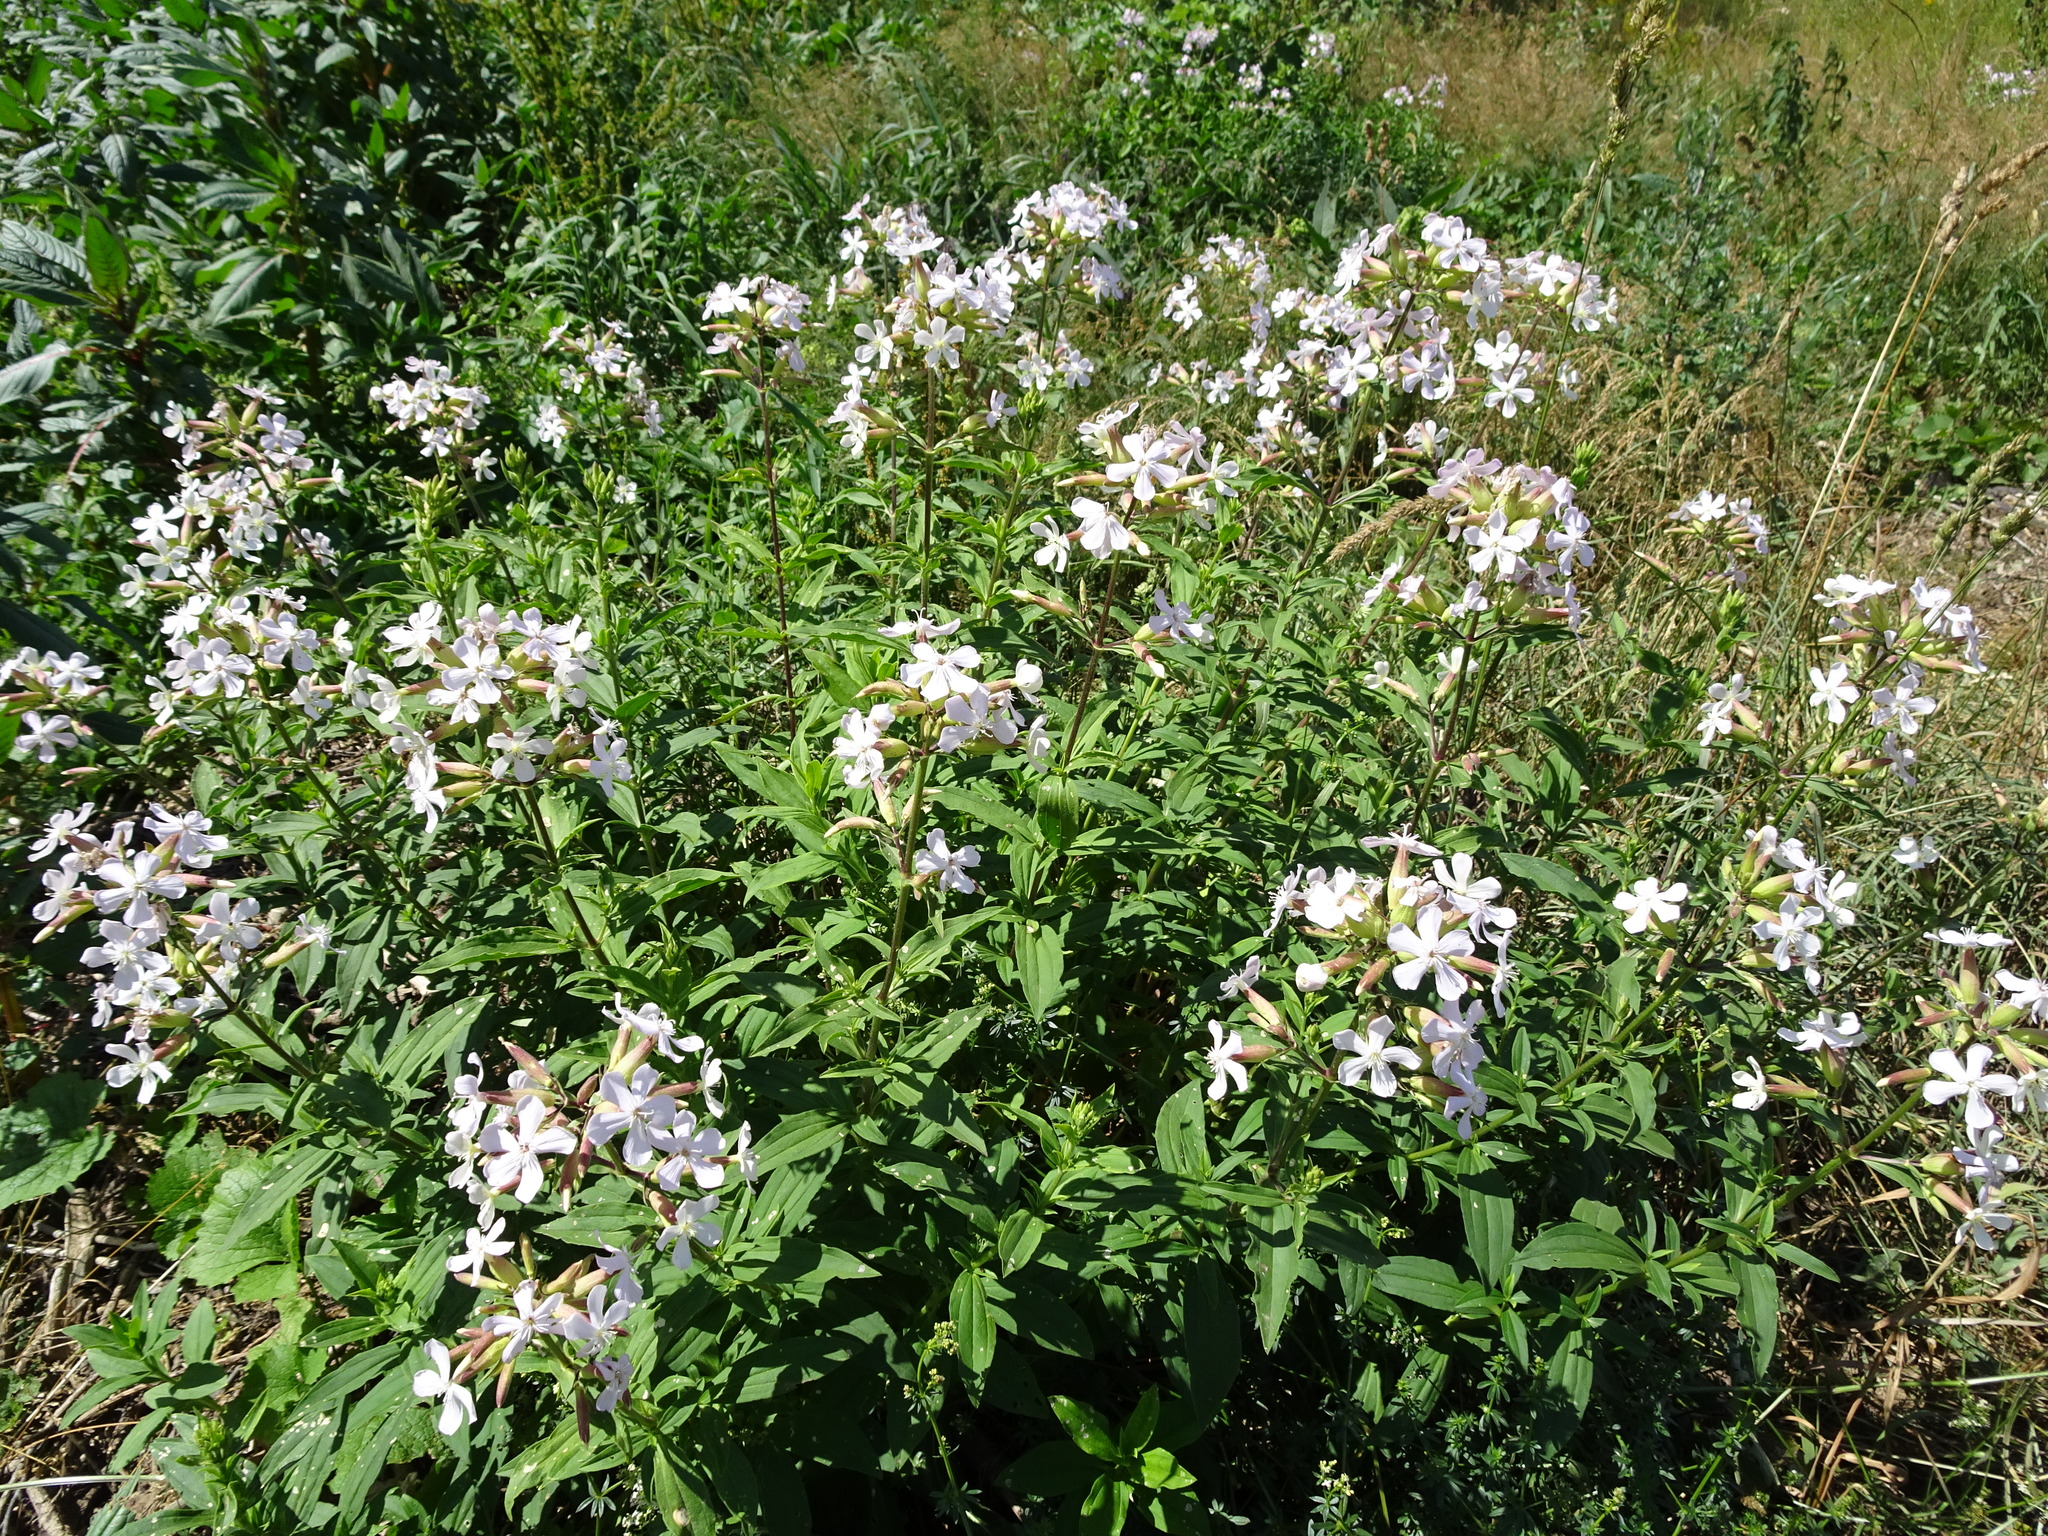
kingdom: Plantae
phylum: Tracheophyta
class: Magnoliopsida
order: Caryophyllales
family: Caryophyllaceae
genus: Saponaria
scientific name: Saponaria officinalis
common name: Soapwort
